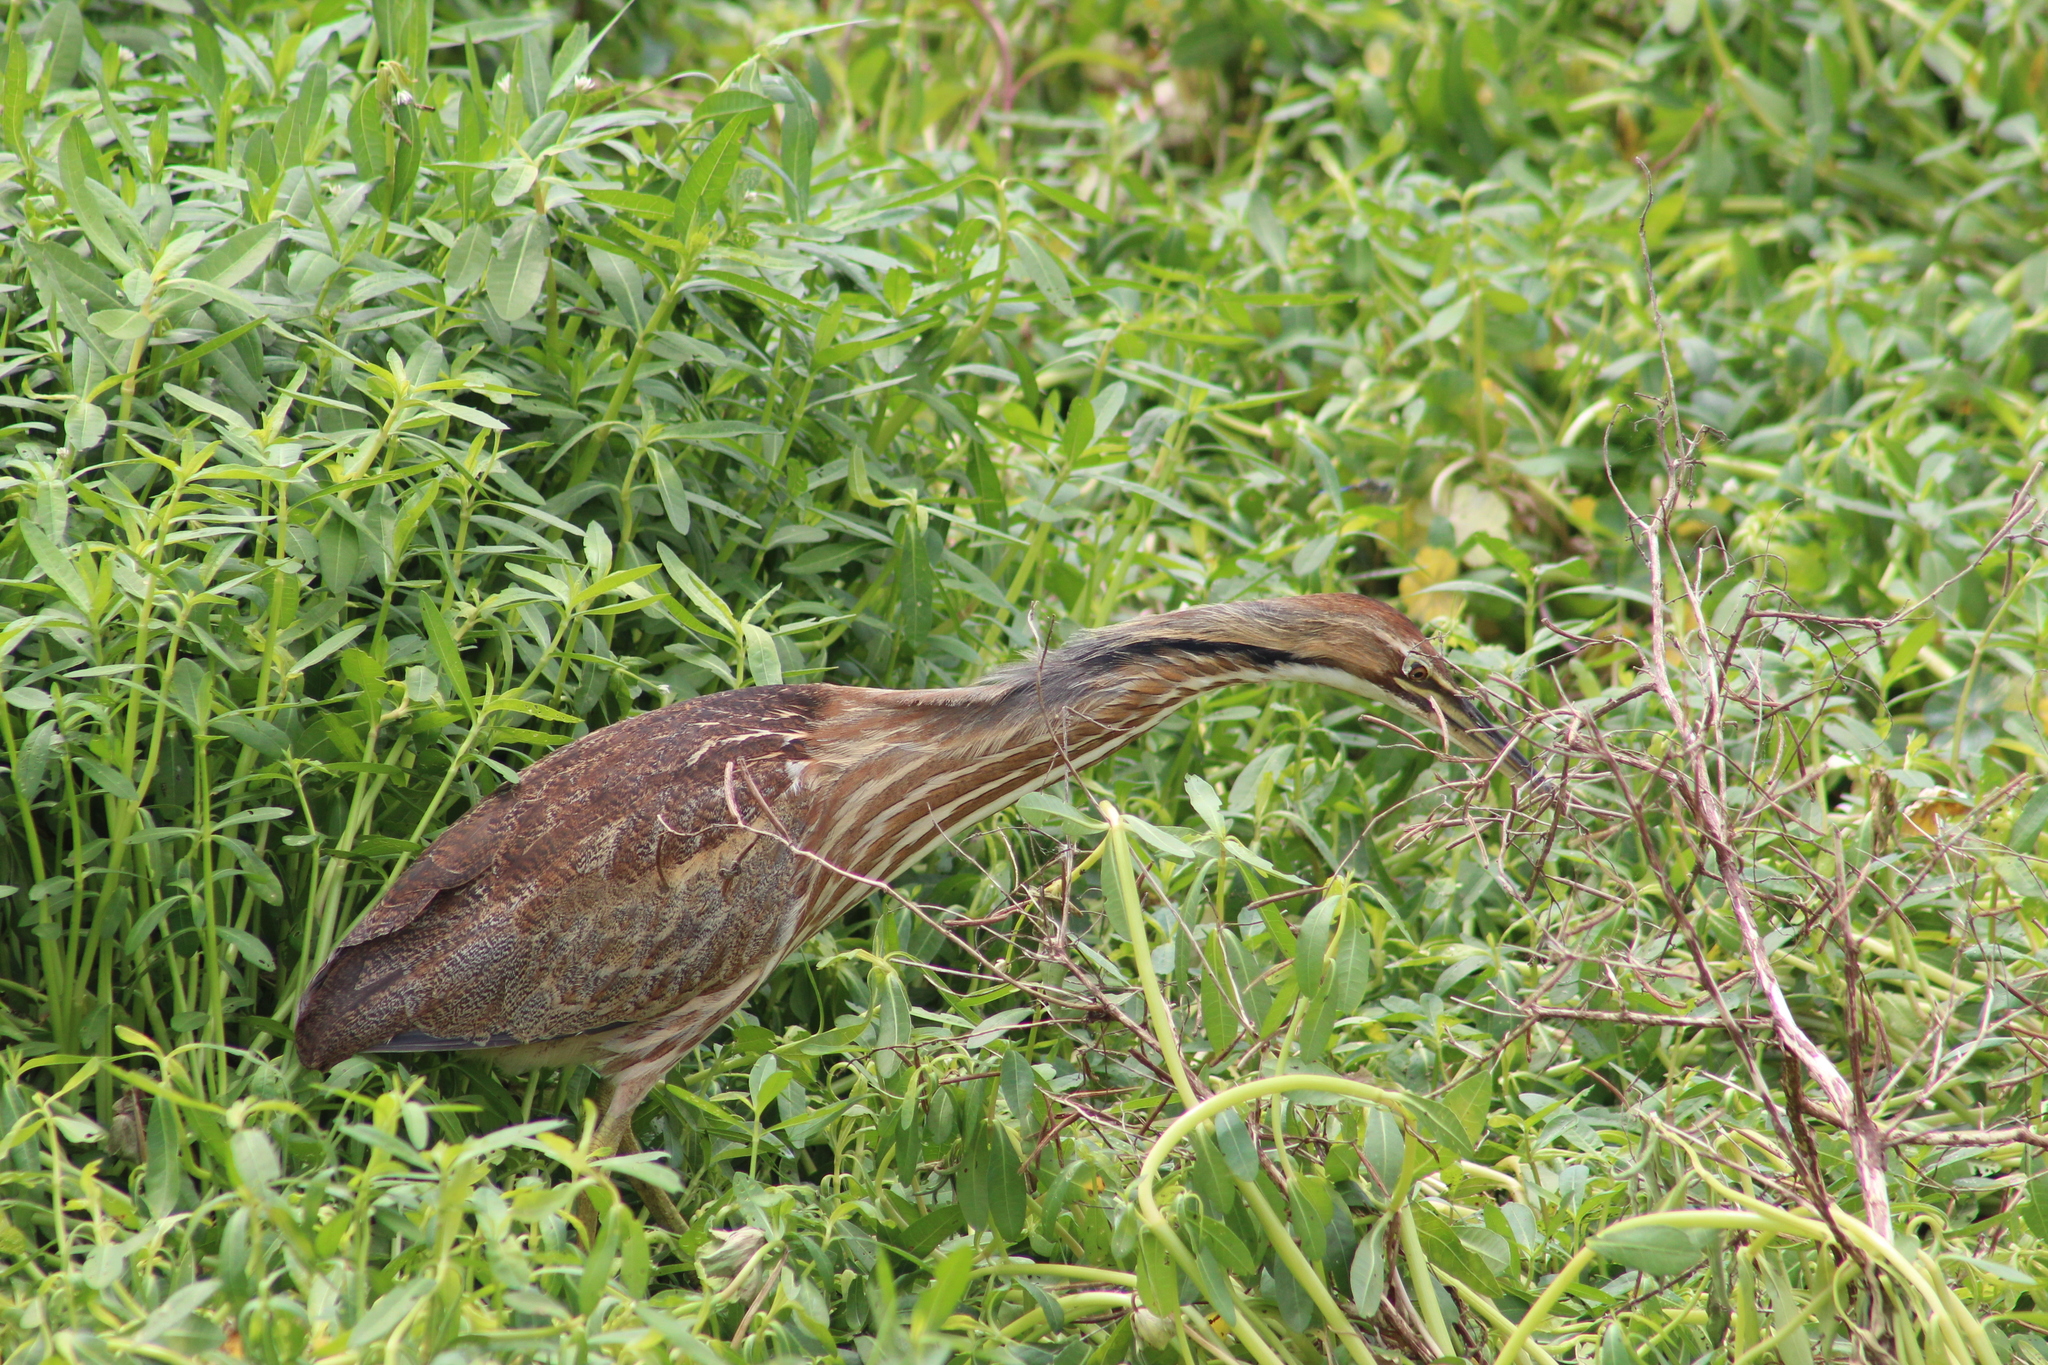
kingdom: Animalia
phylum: Chordata
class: Aves
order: Pelecaniformes
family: Ardeidae
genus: Botaurus
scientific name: Botaurus lentiginosus
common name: American bittern
